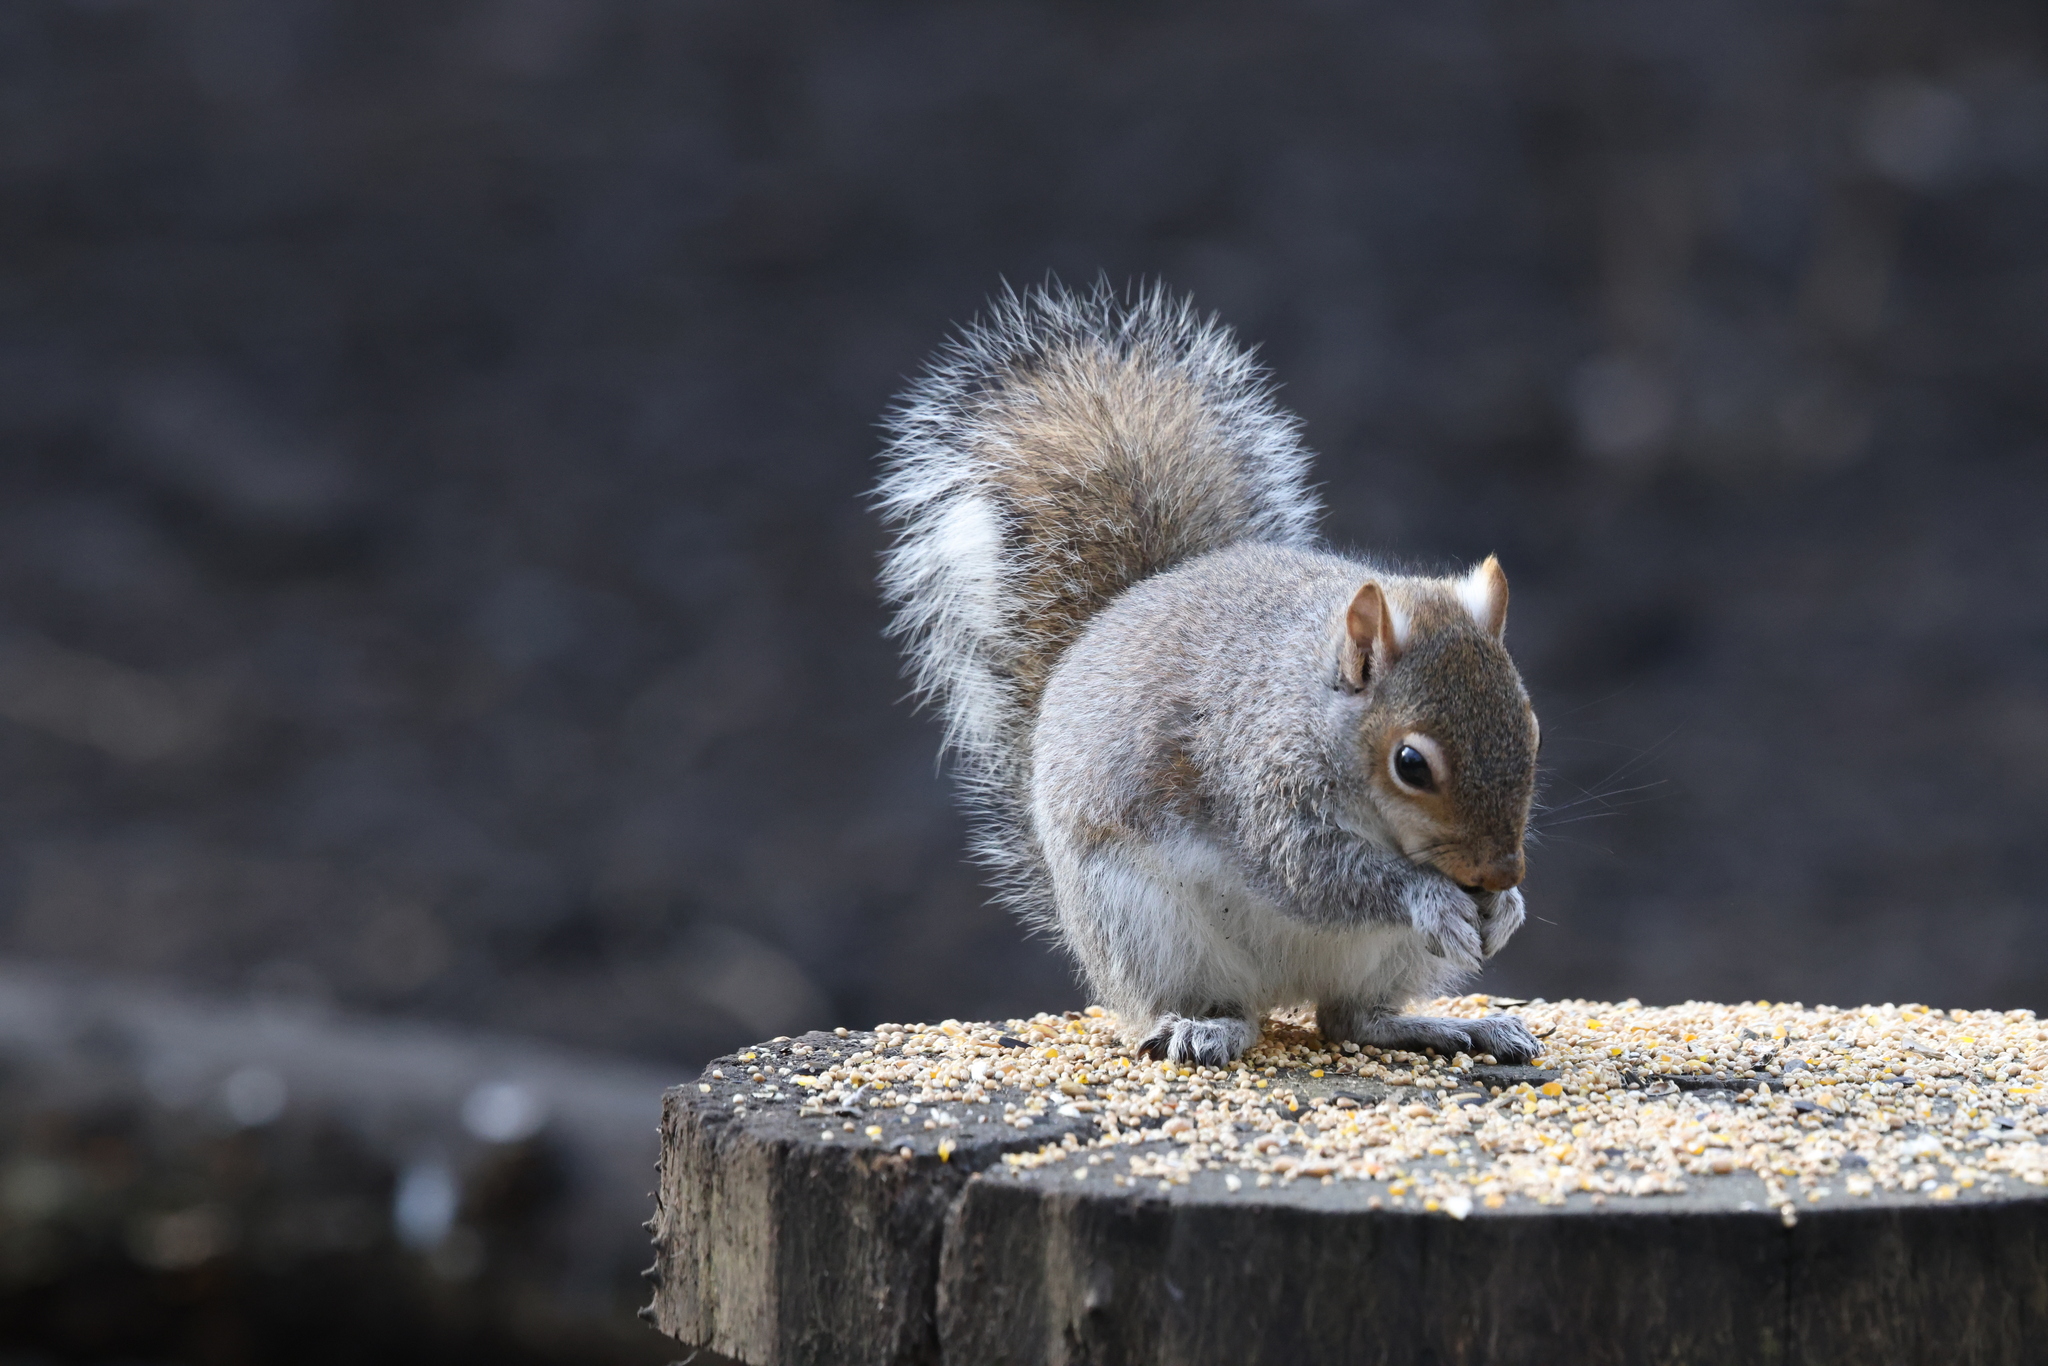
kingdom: Animalia
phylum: Chordata
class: Mammalia
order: Rodentia
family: Sciuridae
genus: Sciurus
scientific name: Sciurus carolinensis
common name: Eastern gray squirrel
